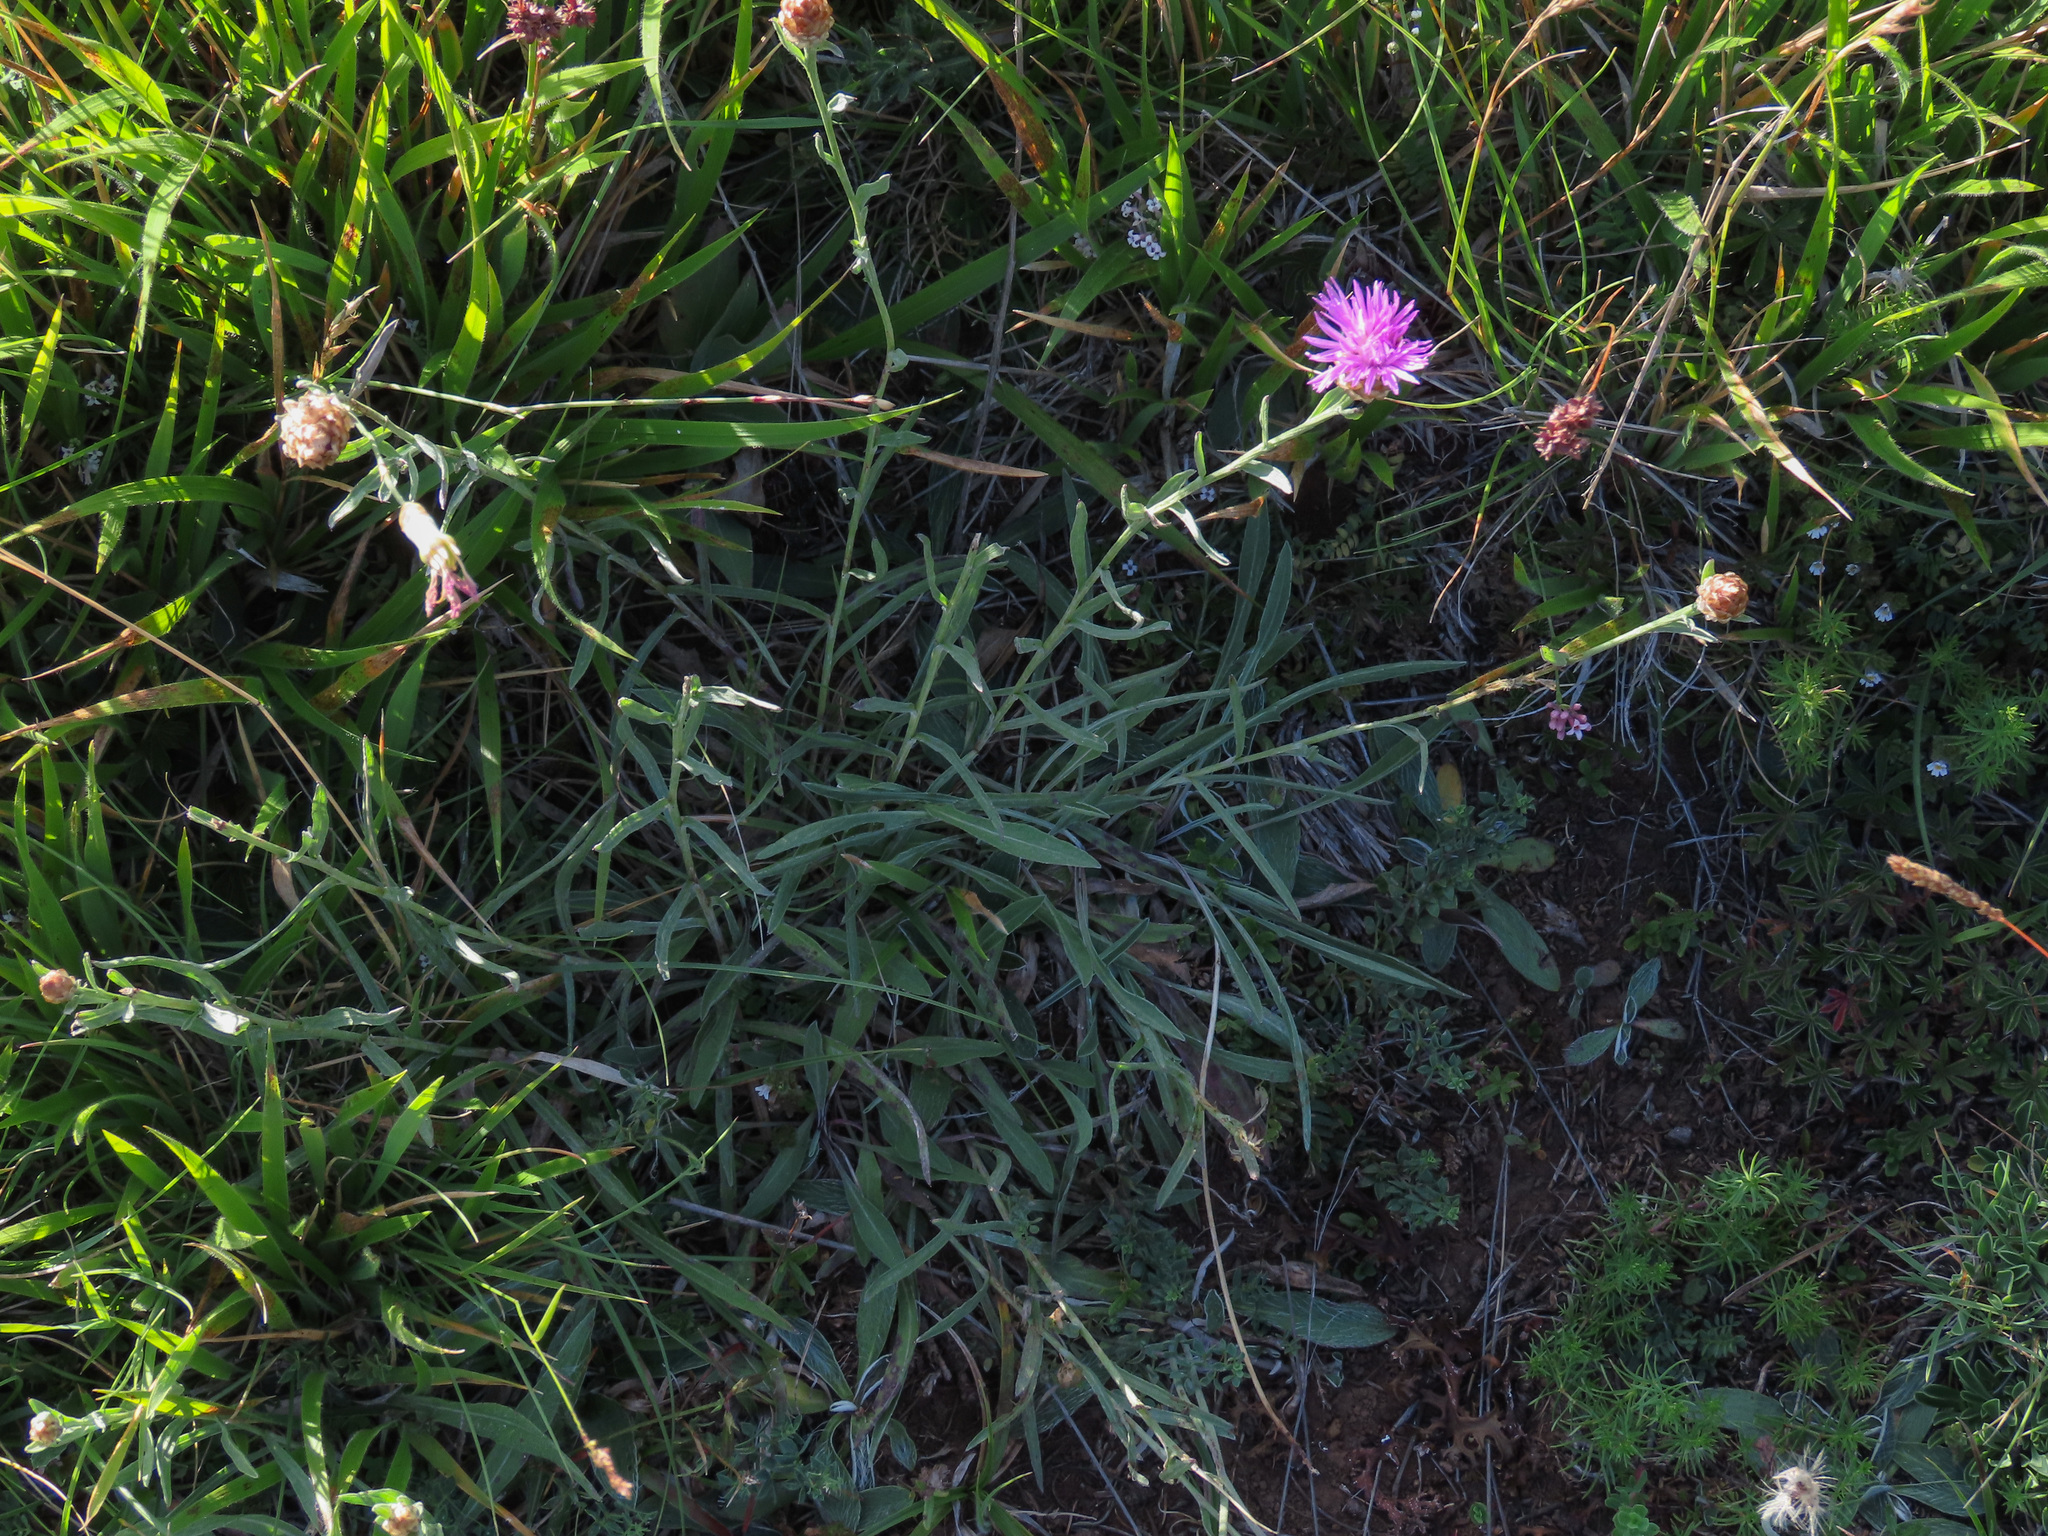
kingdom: Plantae
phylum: Tracheophyta
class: Magnoliopsida
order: Asterales
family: Asteraceae
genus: Centaurea
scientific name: Centaurea jacea
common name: Brown knapweed
